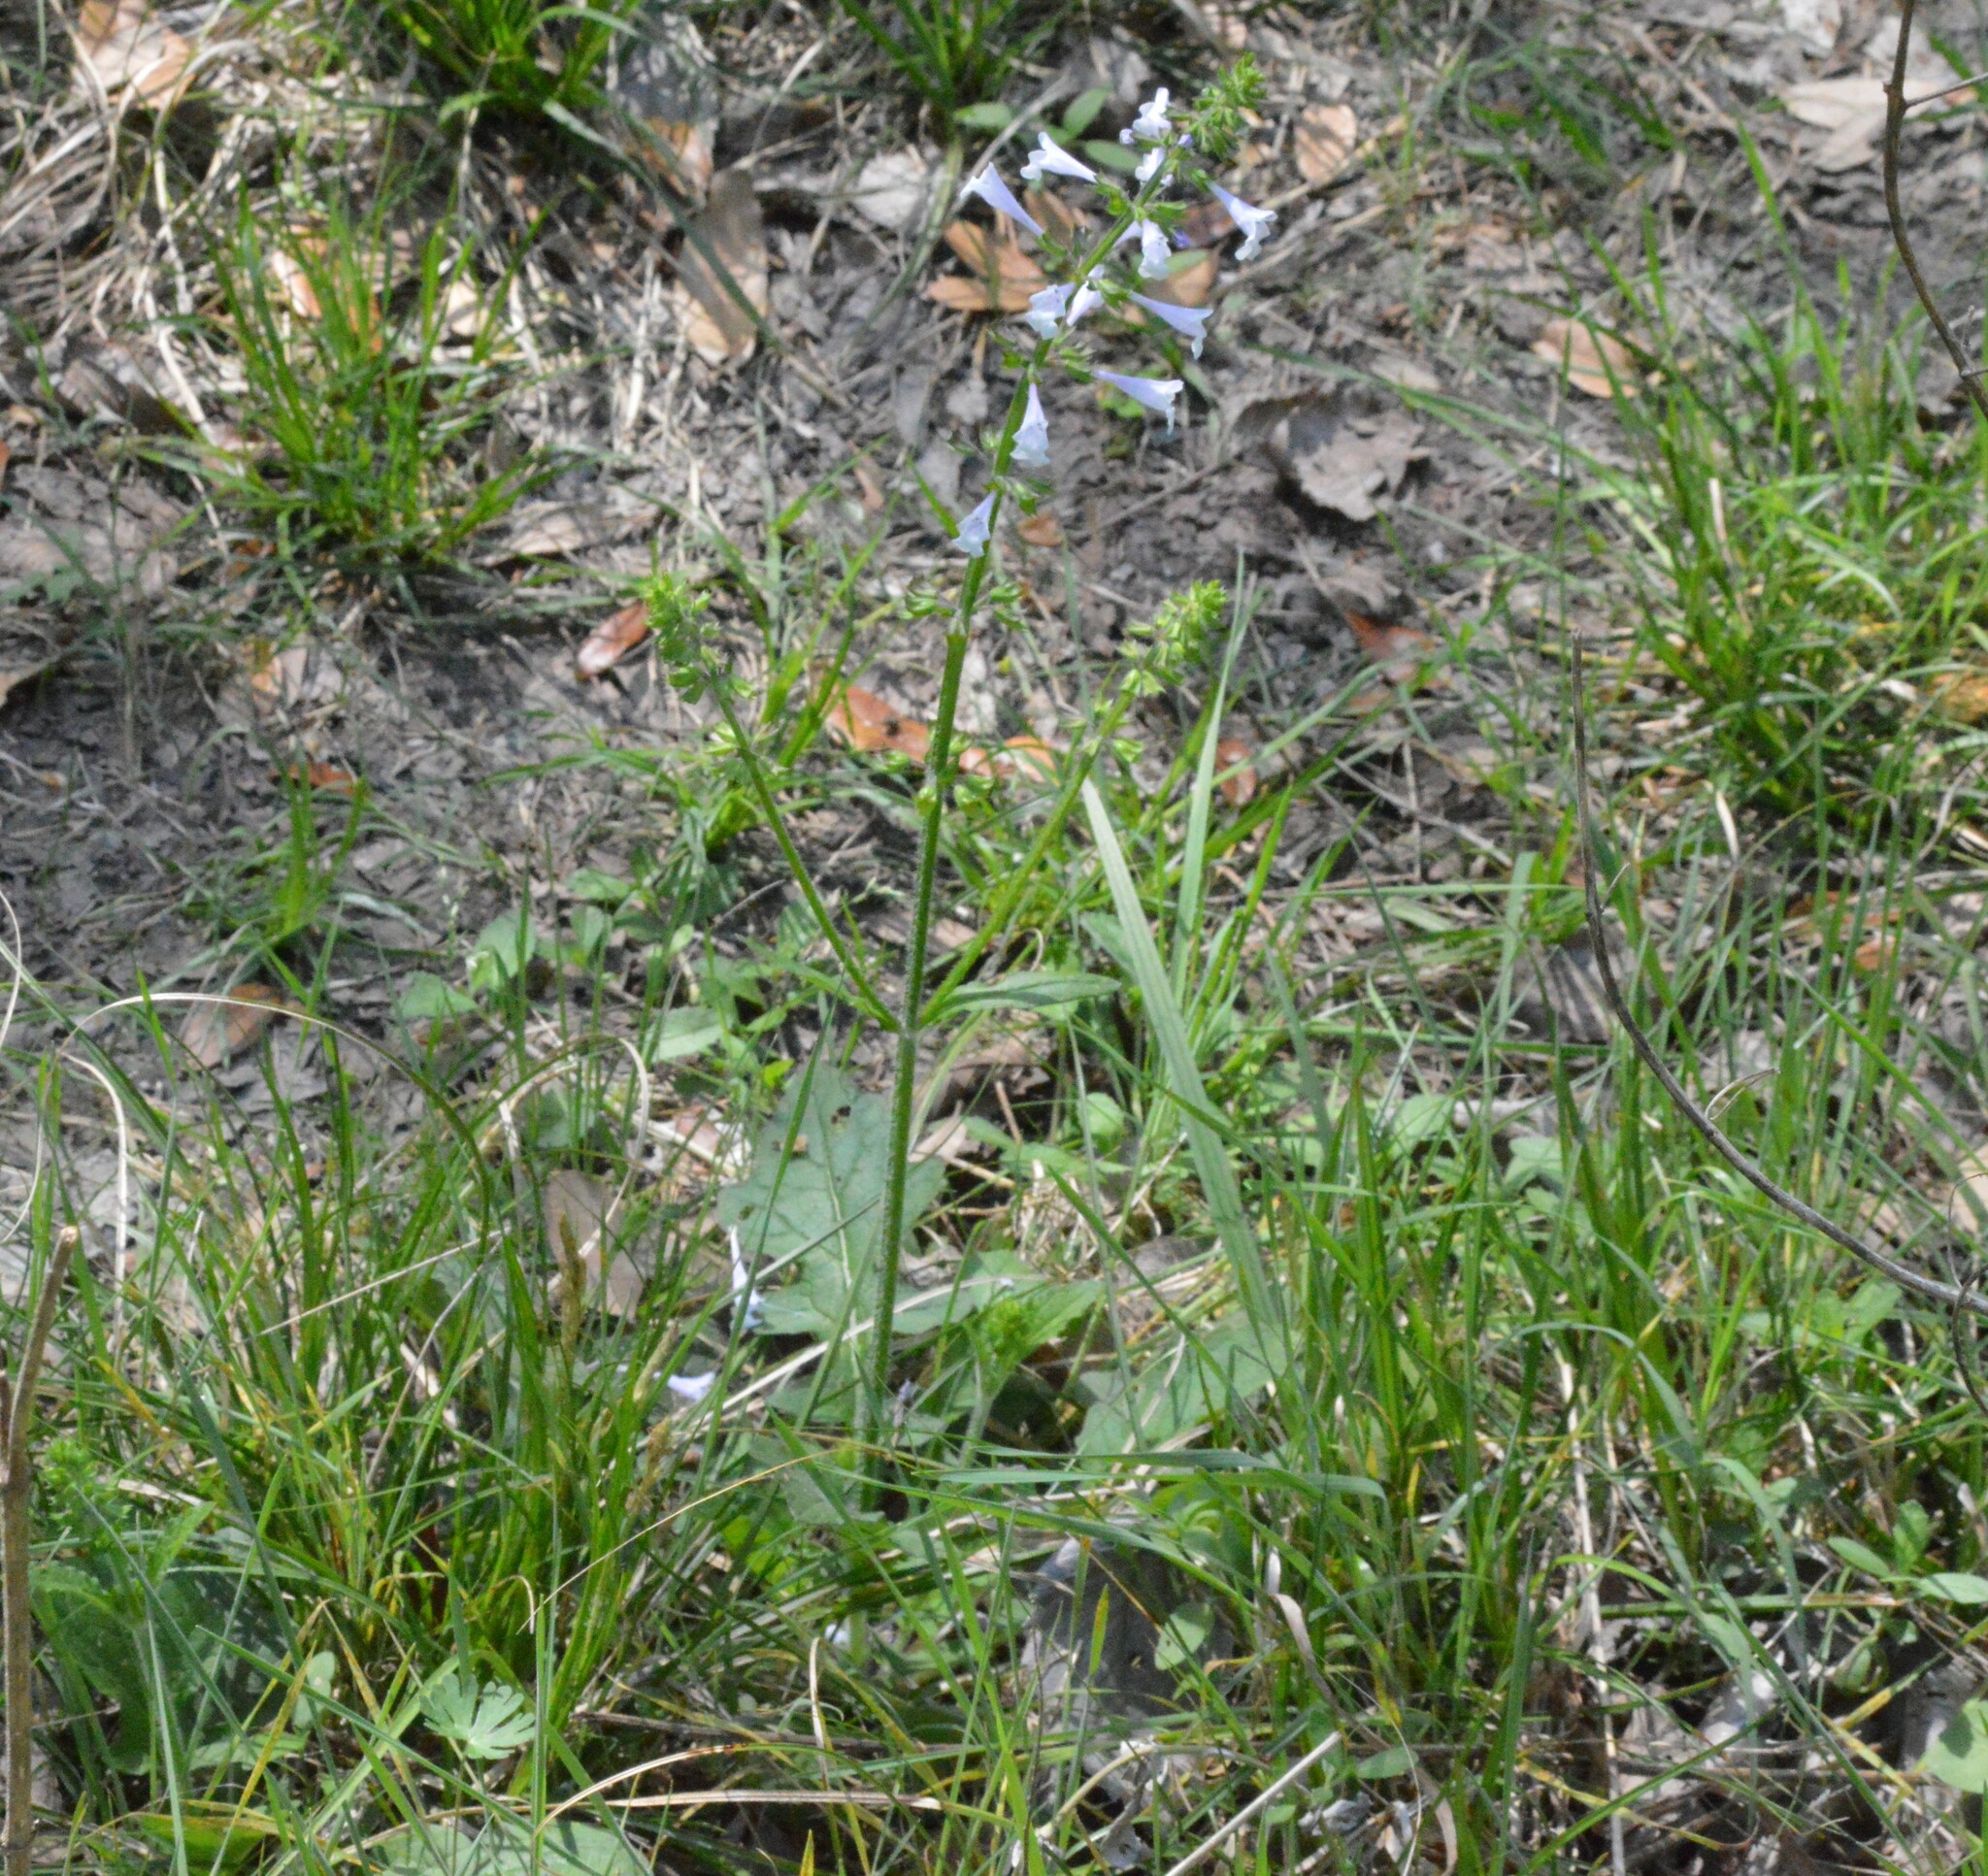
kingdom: Plantae
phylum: Tracheophyta
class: Magnoliopsida
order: Lamiales
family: Lamiaceae
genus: Salvia
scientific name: Salvia lyrata
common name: Cancerweed
